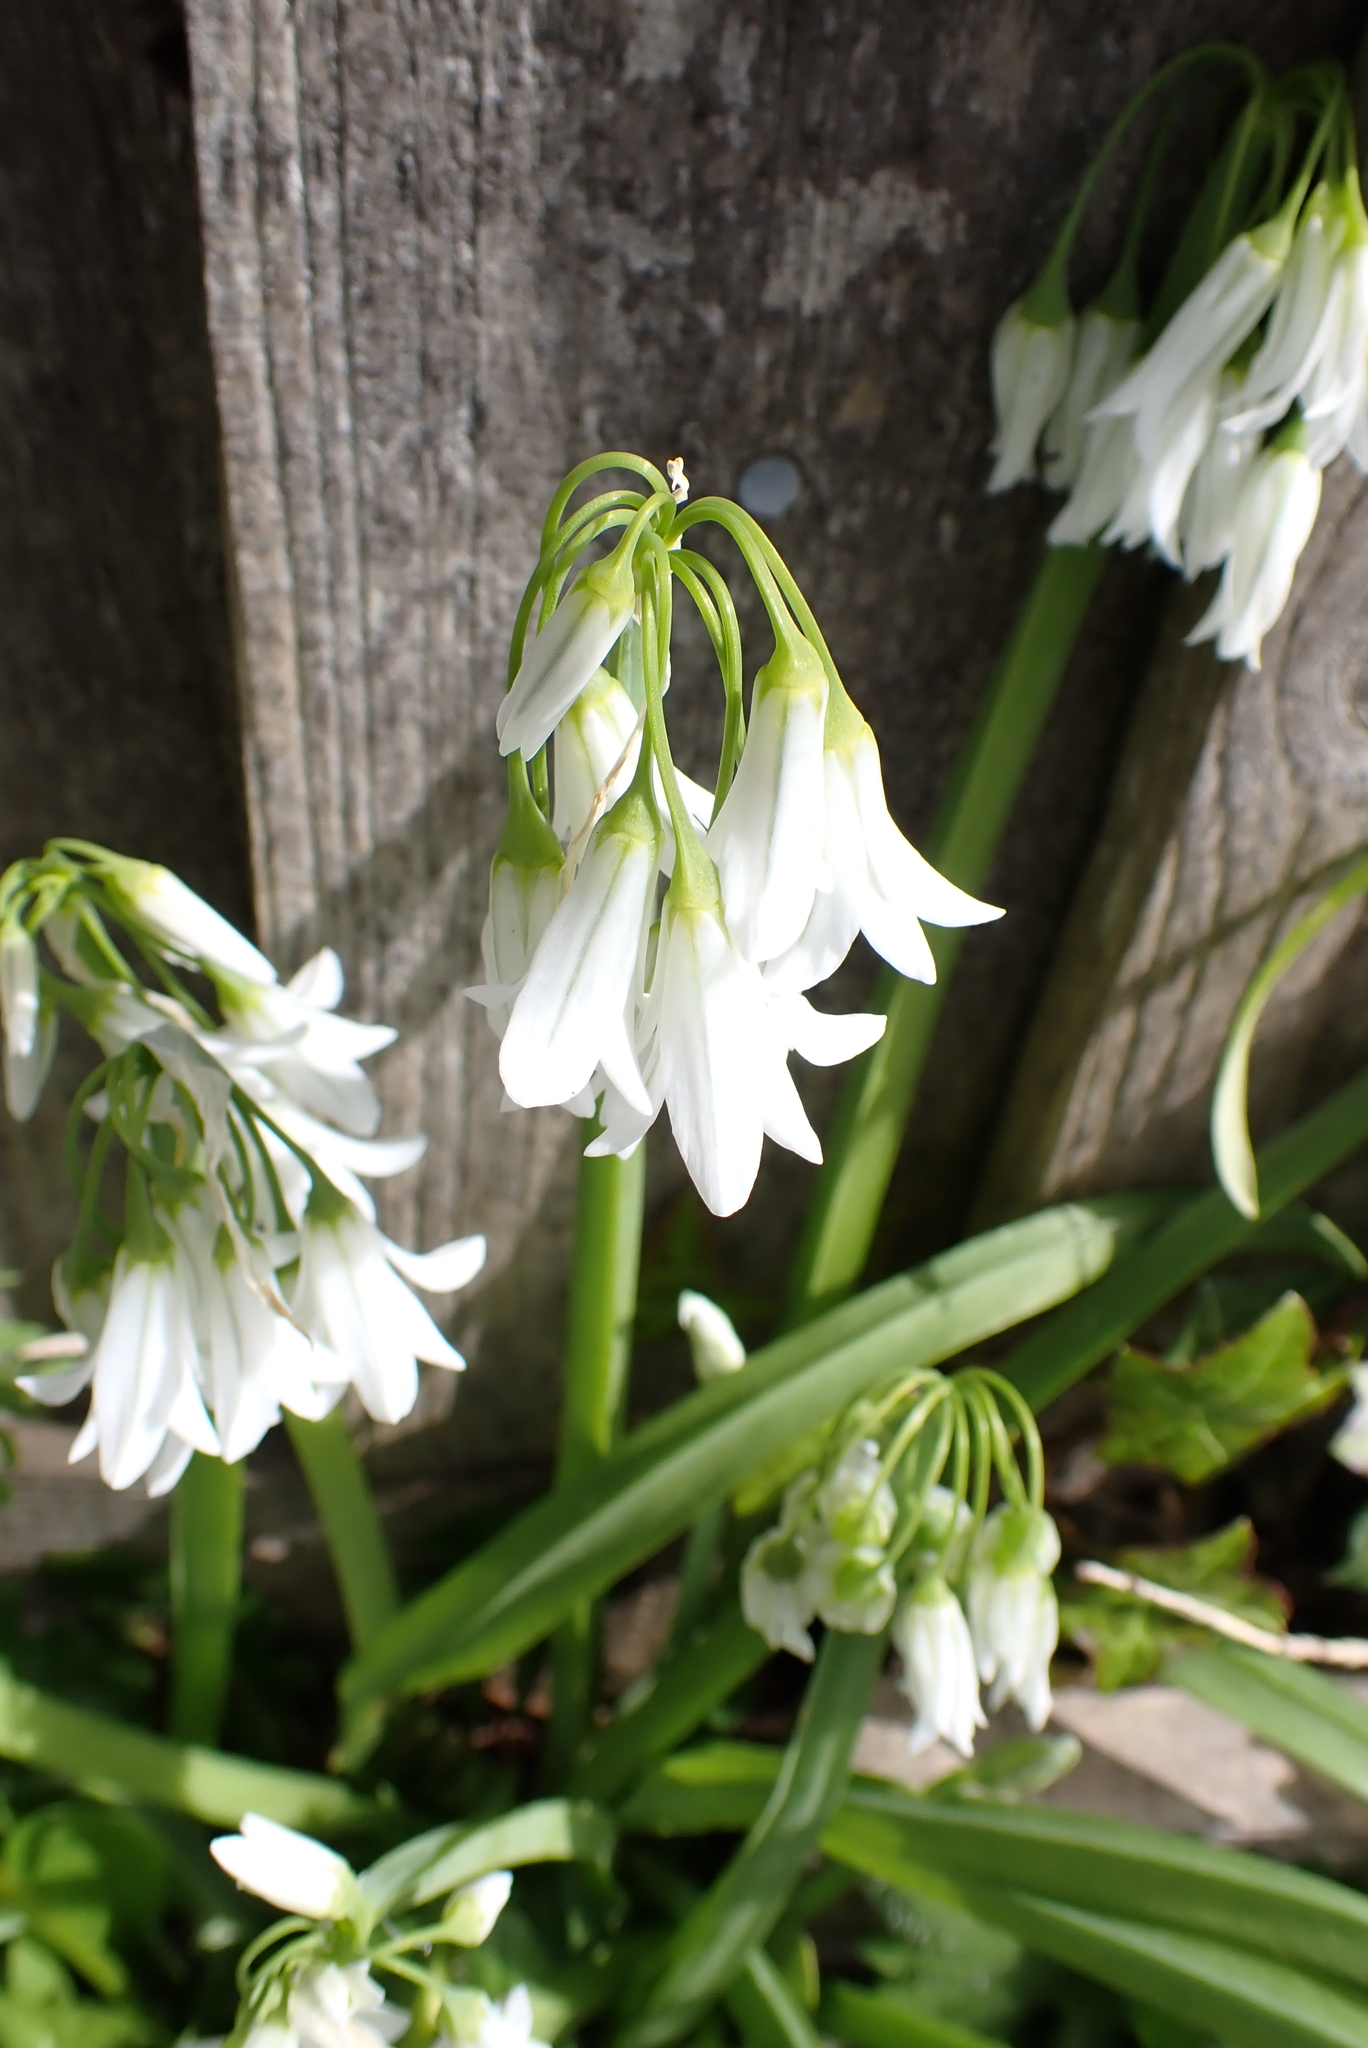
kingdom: Plantae
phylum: Tracheophyta
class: Liliopsida
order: Asparagales
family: Amaryllidaceae
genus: Allium
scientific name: Allium triquetrum
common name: Three-cornered garlic
